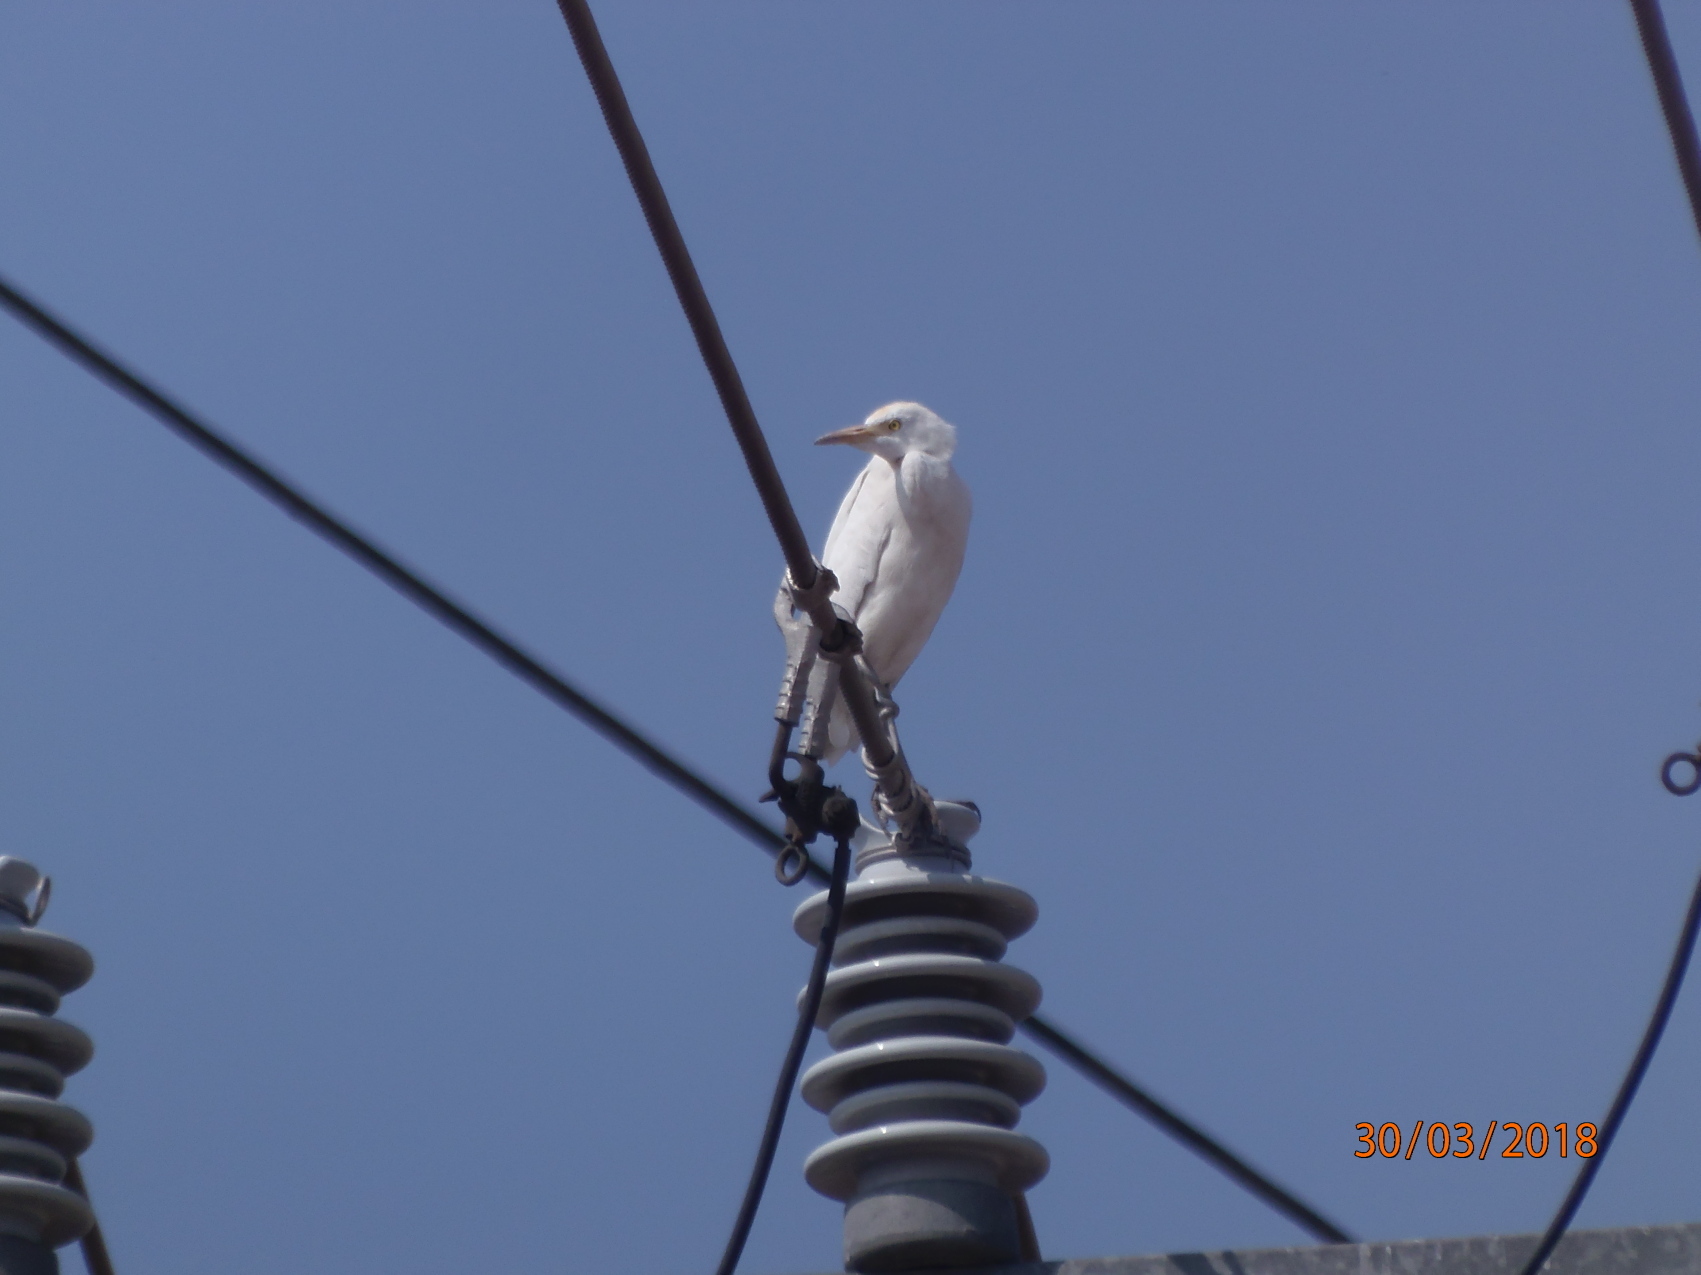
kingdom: Animalia
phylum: Chordata
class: Aves
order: Pelecaniformes
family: Ardeidae
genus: Bubulcus
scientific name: Bubulcus ibis
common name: Cattle egret
